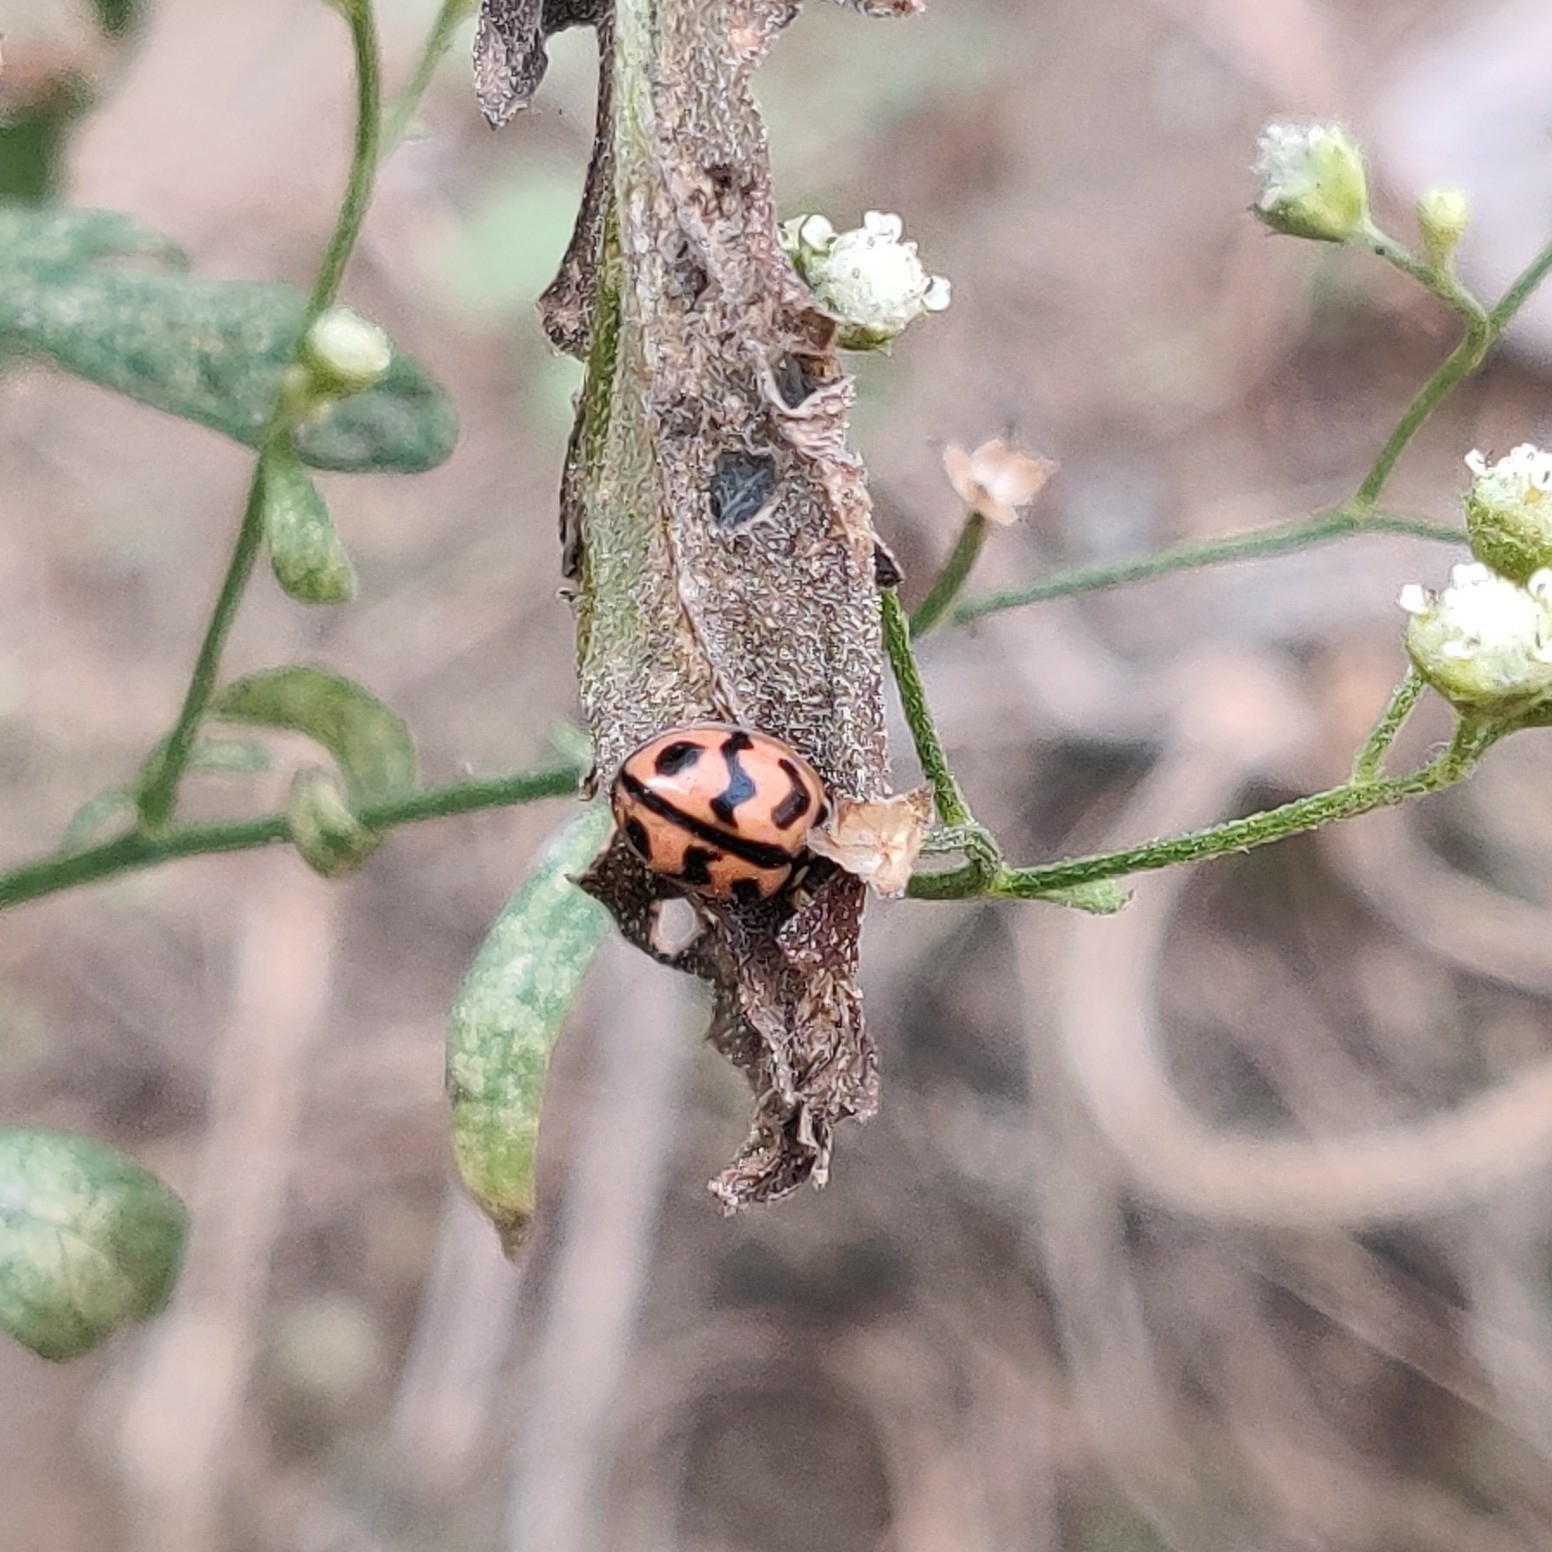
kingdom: Animalia
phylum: Arthropoda
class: Insecta
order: Coleoptera
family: Coccinellidae
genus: Cheilomenes
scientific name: Cheilomenes sexmaculata
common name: Ladybird beetle
